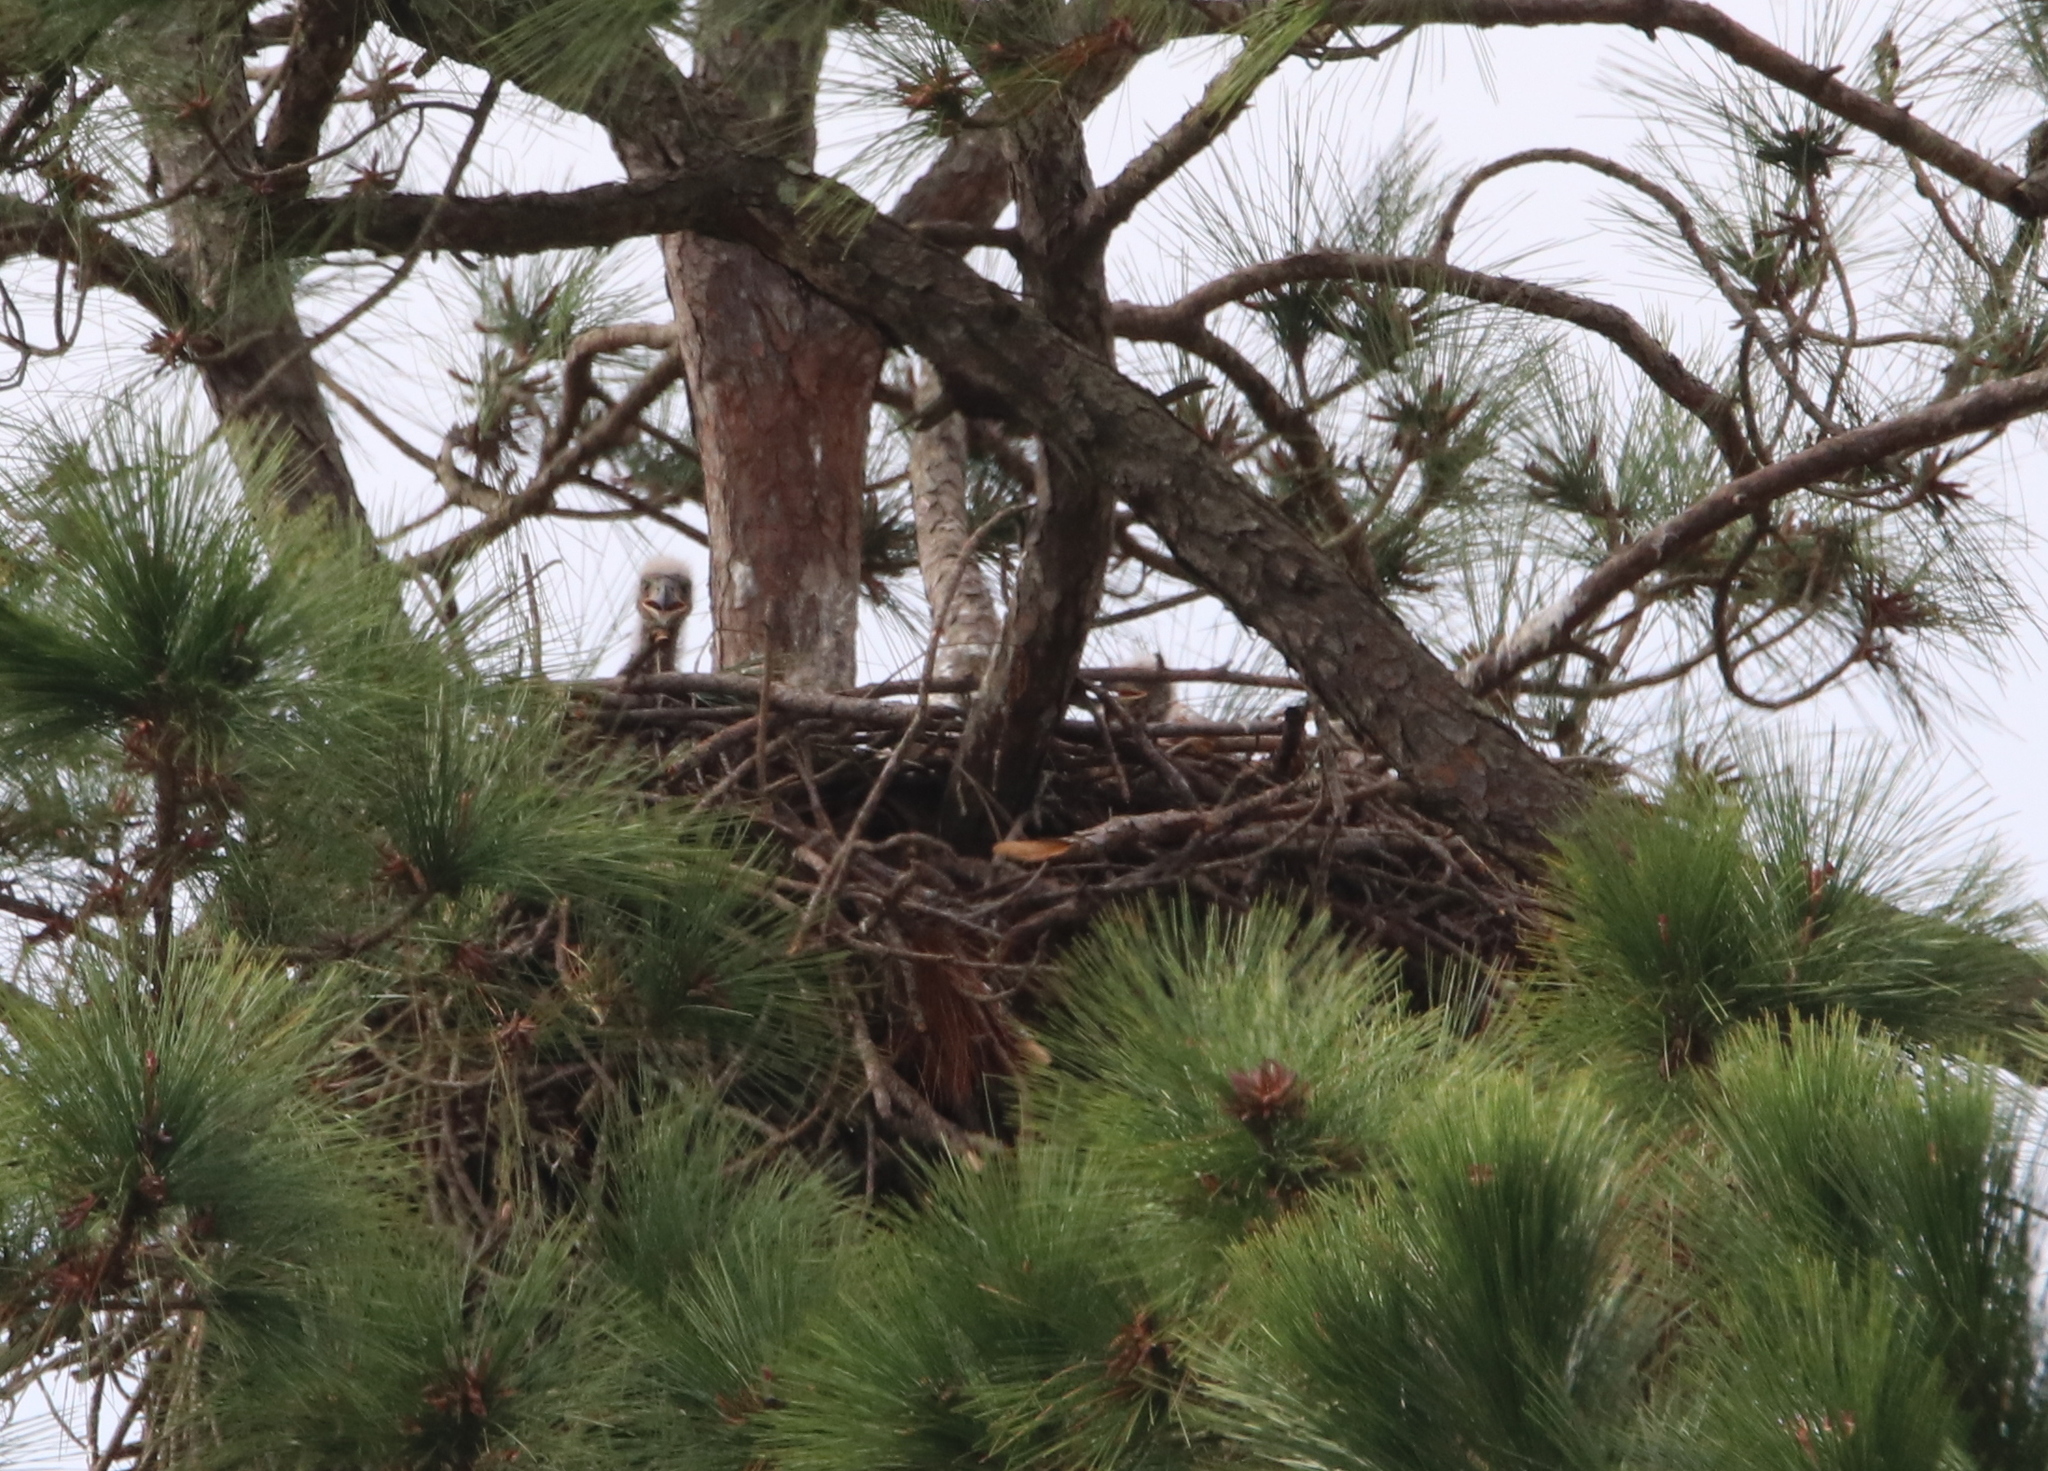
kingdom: Animalia
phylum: Chordata
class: Aves
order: Accipitriformes
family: Accipitridae
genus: Haliaeetus
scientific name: Haliaeetus leucocephalus
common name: Bald eagle
